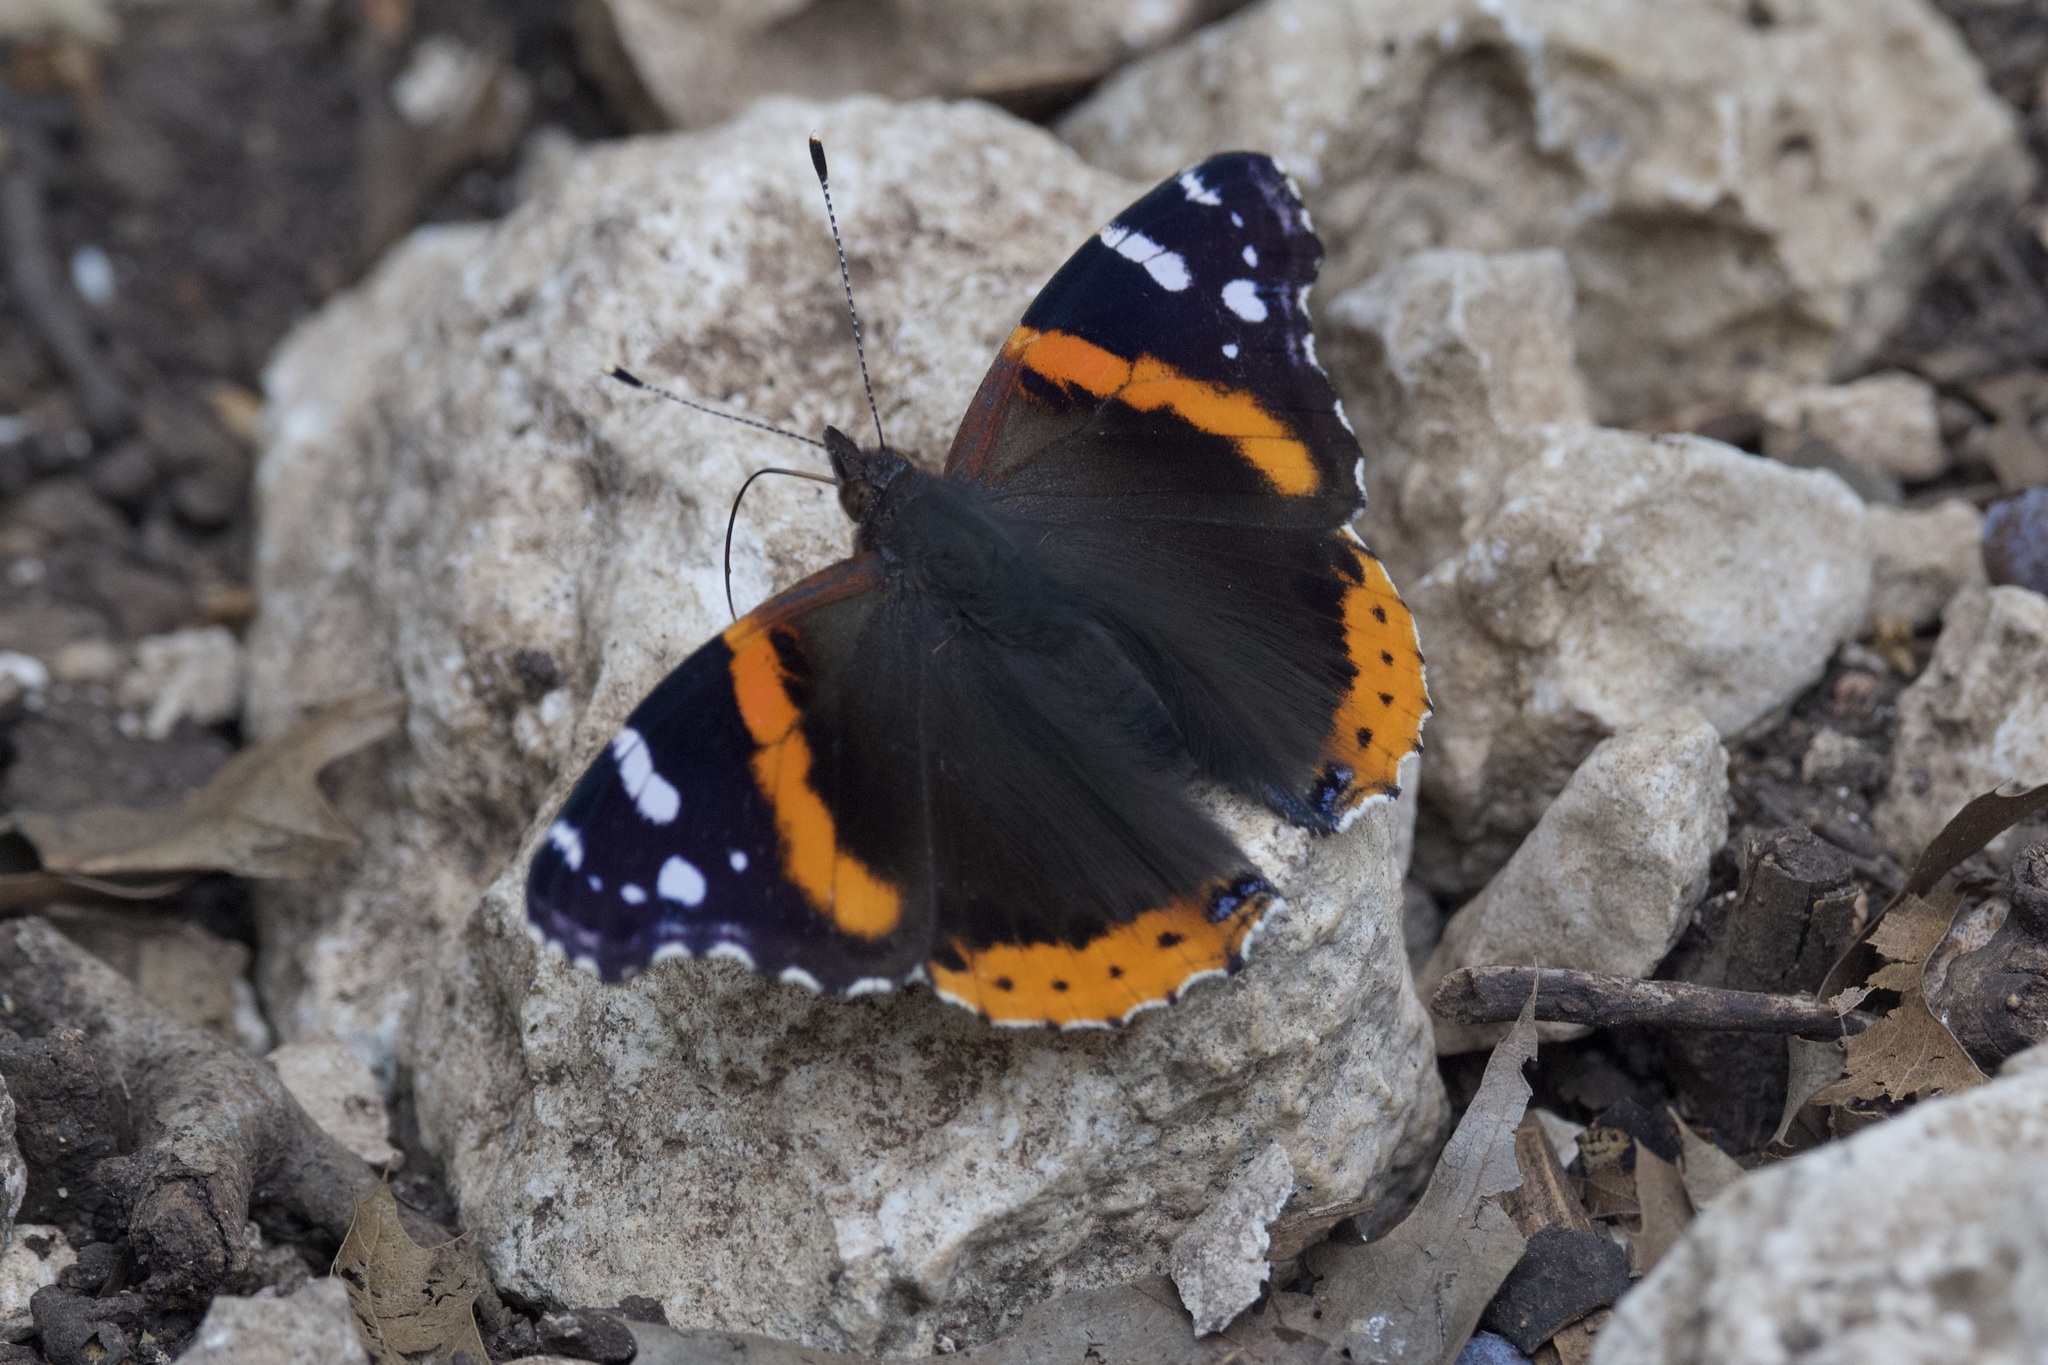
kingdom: Animalia
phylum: Arthropoda
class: Insecta
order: Lepidoptera
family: Nymphalidae
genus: Vanessa
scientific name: Vanessa atalanta
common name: Red admiral
